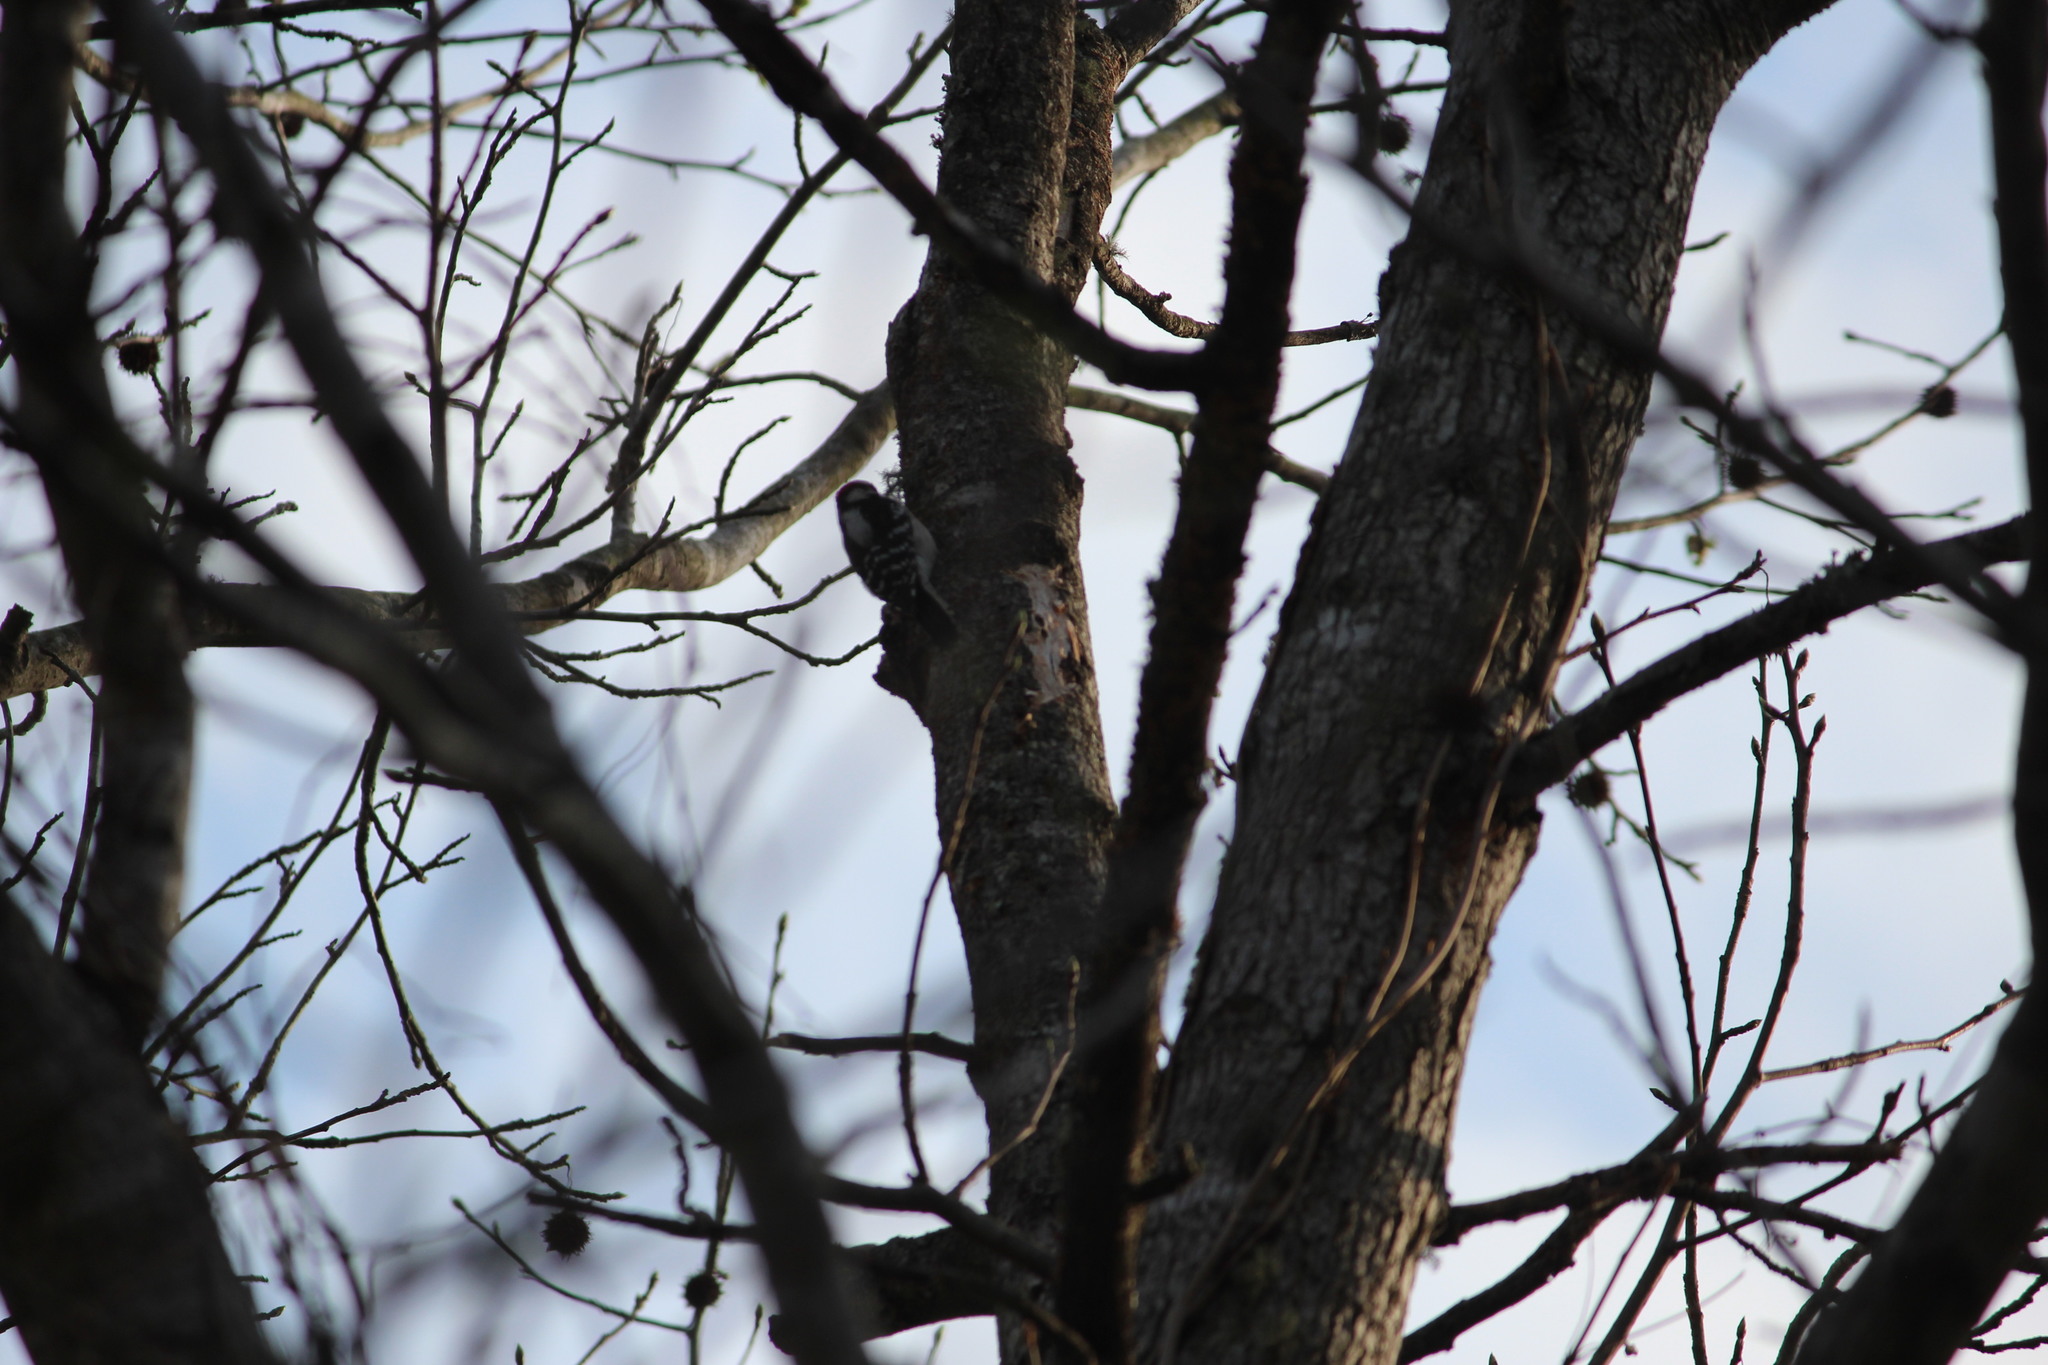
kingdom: Animalia
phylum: Chordata
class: Aves
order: Piciformes
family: Picidae
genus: Dryobates
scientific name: Dryobates pubescens
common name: Downy woodpecker
